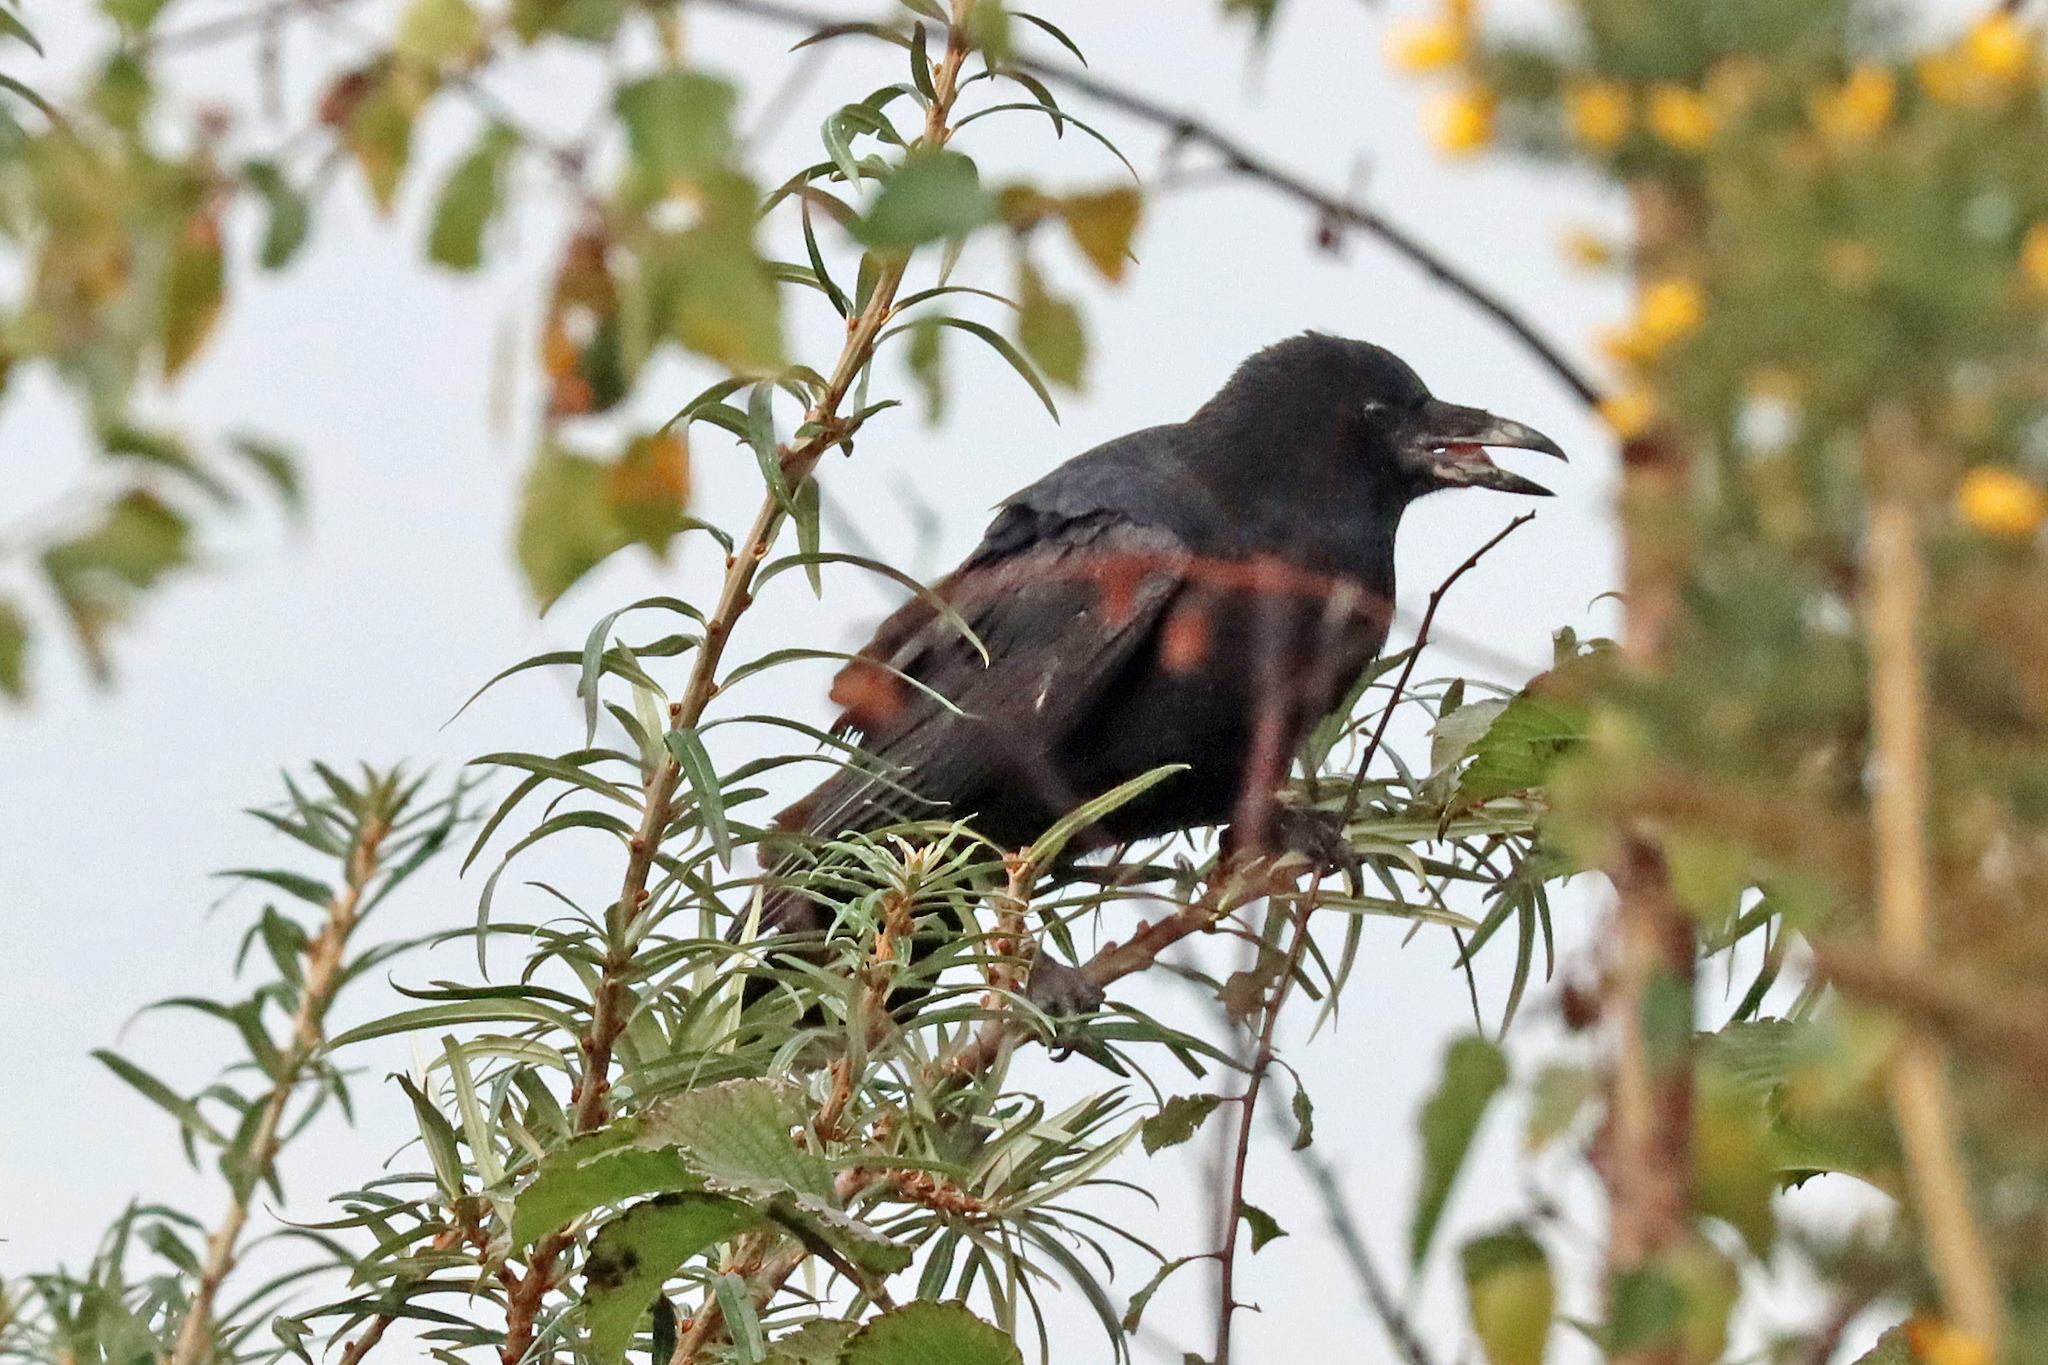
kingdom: Animalia
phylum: Chordata
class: Aves
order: Passeriformes
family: Corvidae
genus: Corvus
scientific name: Corvus corone
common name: Carrion crow
